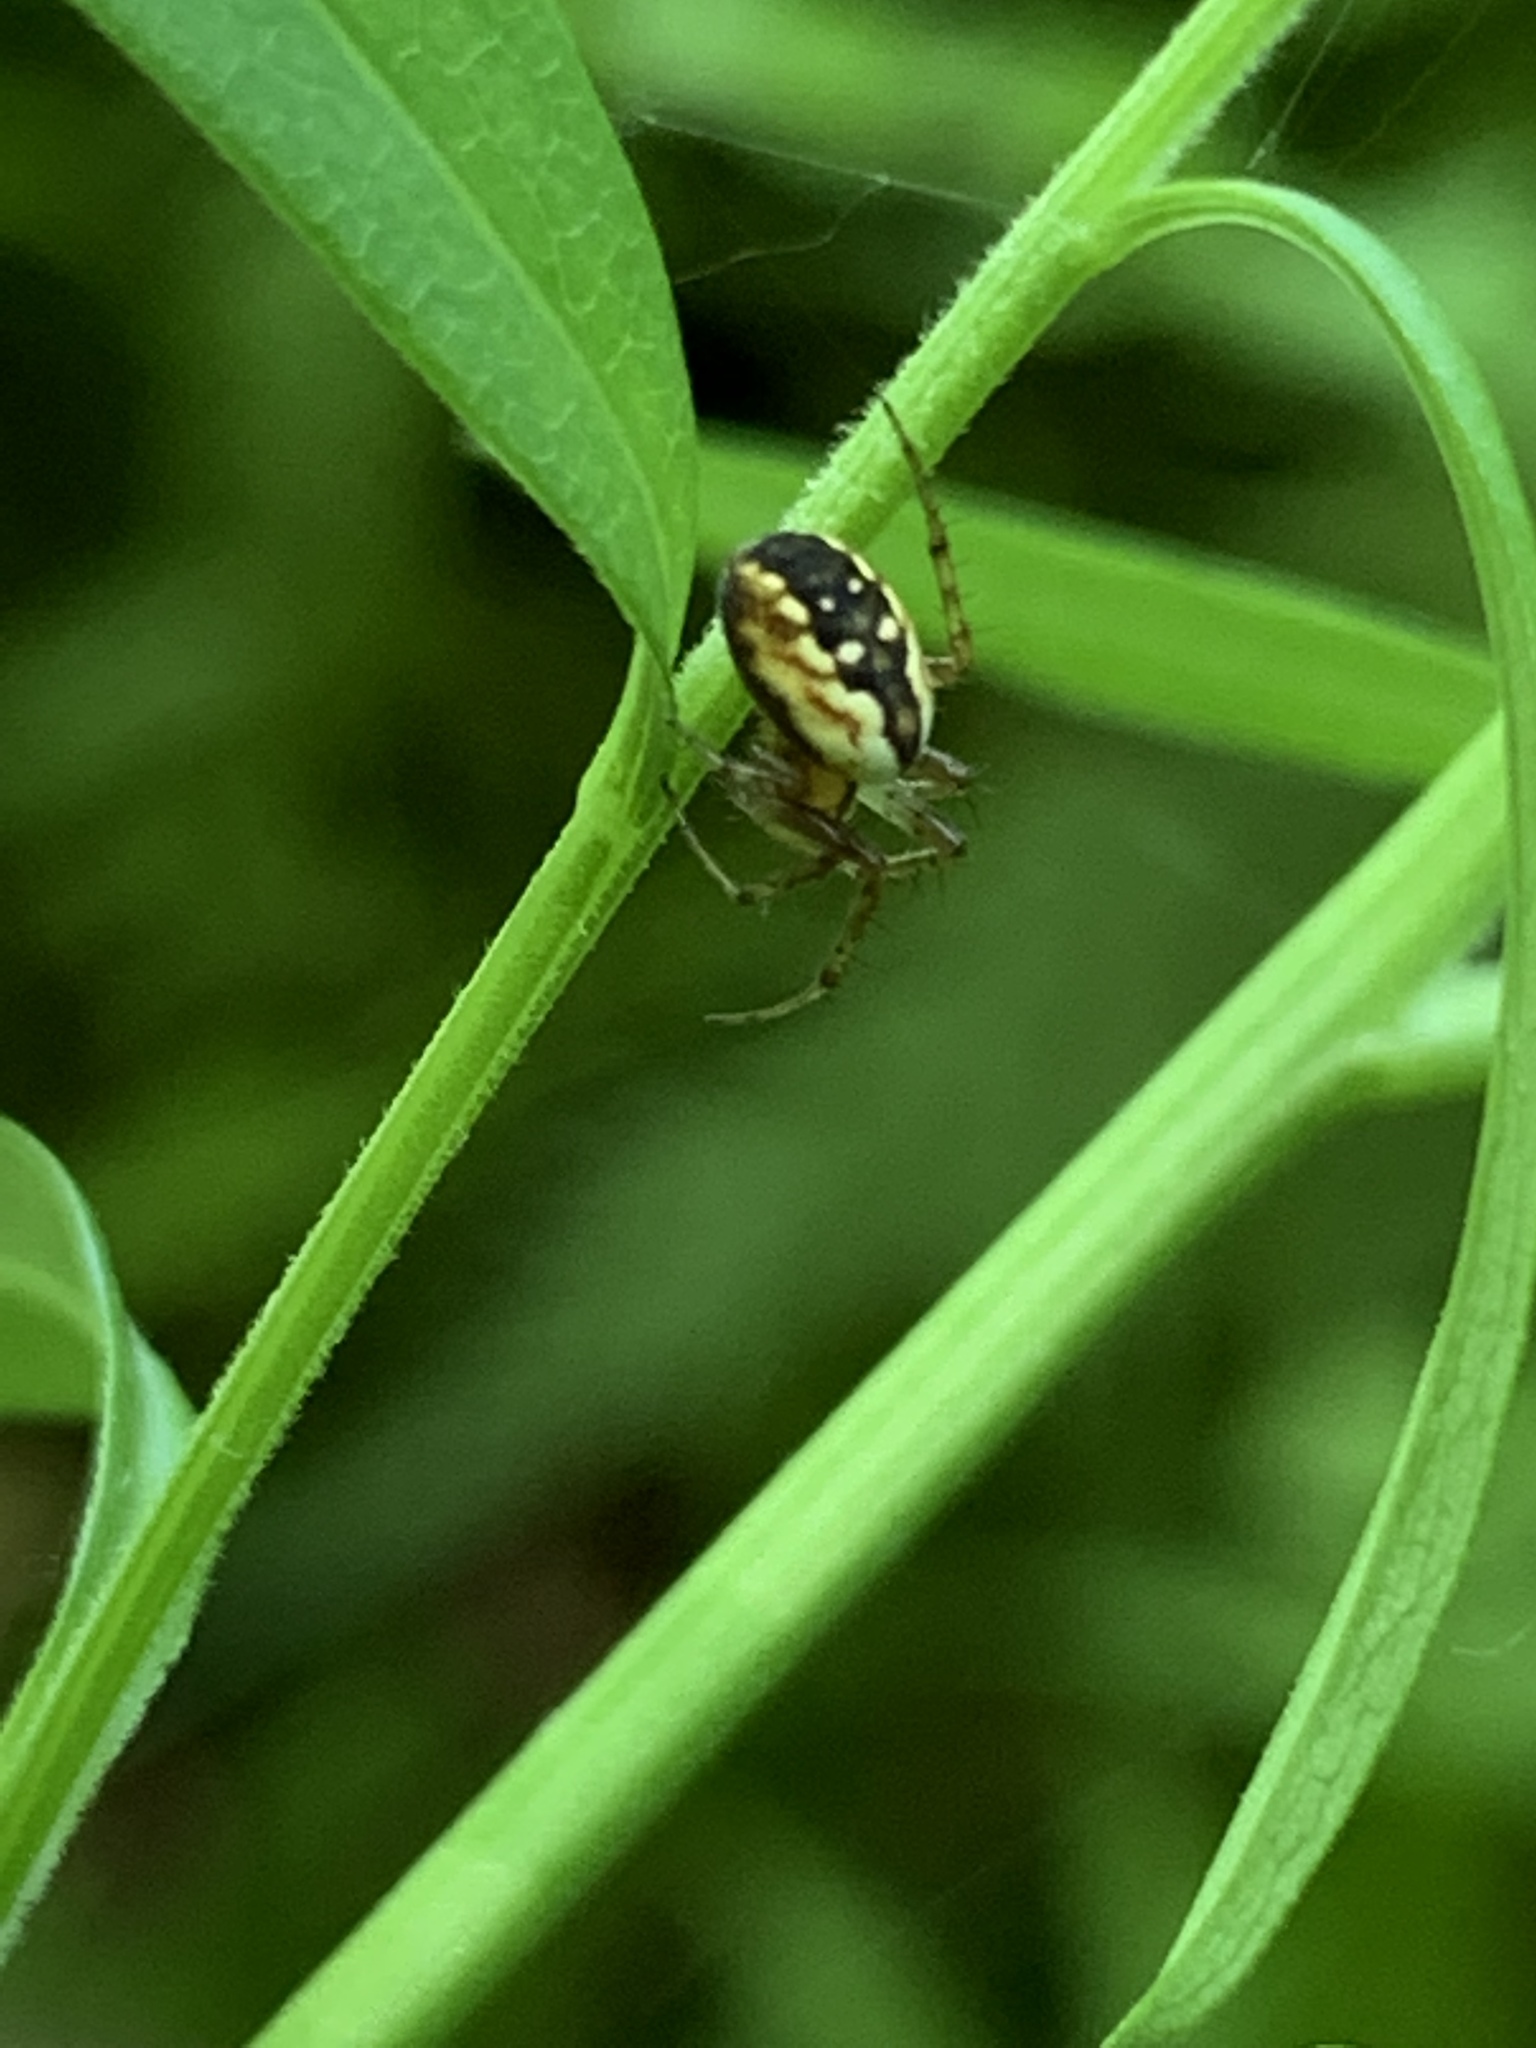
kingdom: Animalia
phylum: Arthropoda
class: Arachnida
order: Araneae
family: Araneidae
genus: Mangora
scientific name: Mangora placida
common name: Tuft-legged orbweaver
